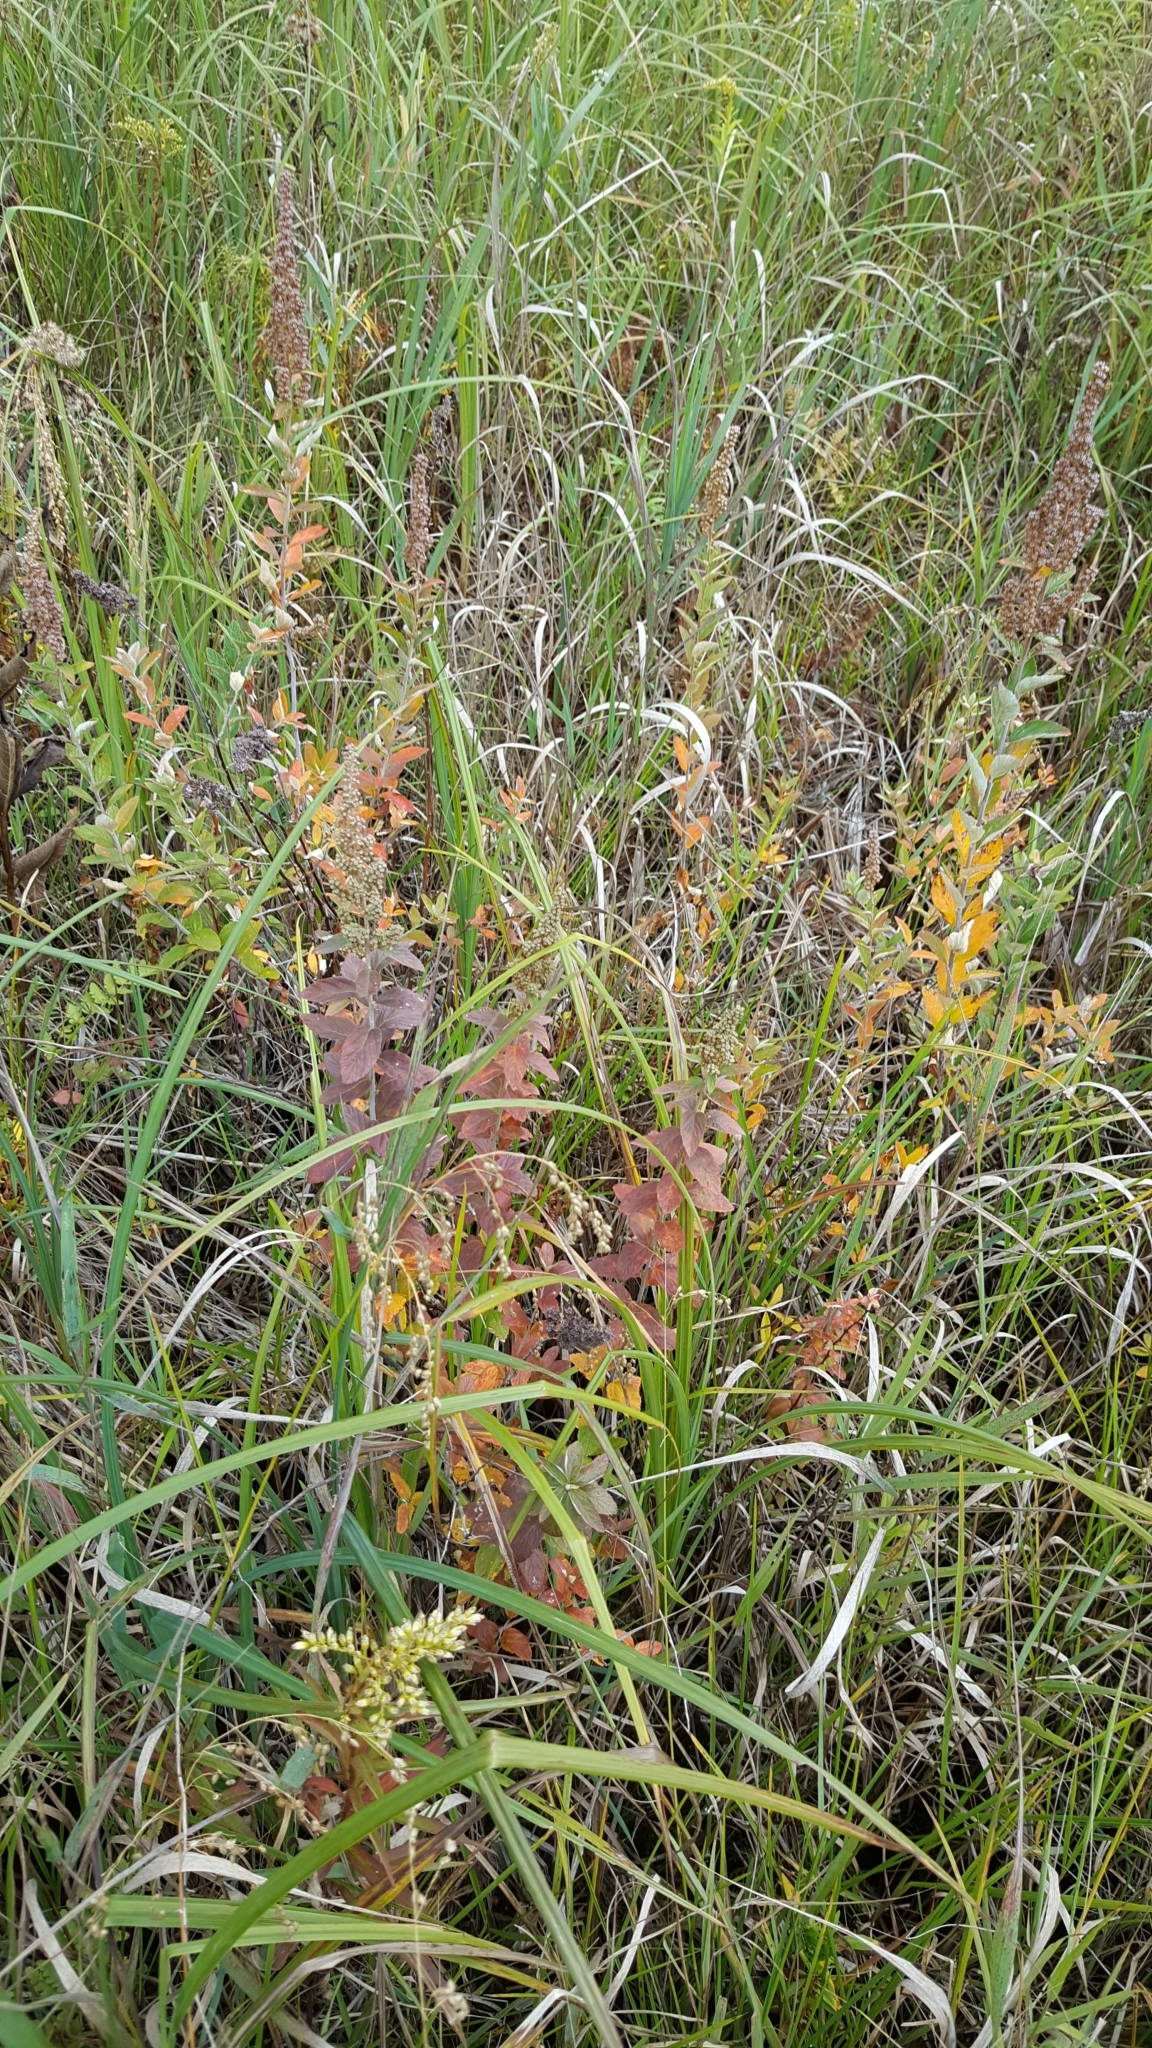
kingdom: Plantae
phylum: Tracheophyta
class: Magnoliopsida
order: Rosales
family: Rosaceae
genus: Spiraea
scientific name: Spiraea tomentosa
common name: Hardhack
